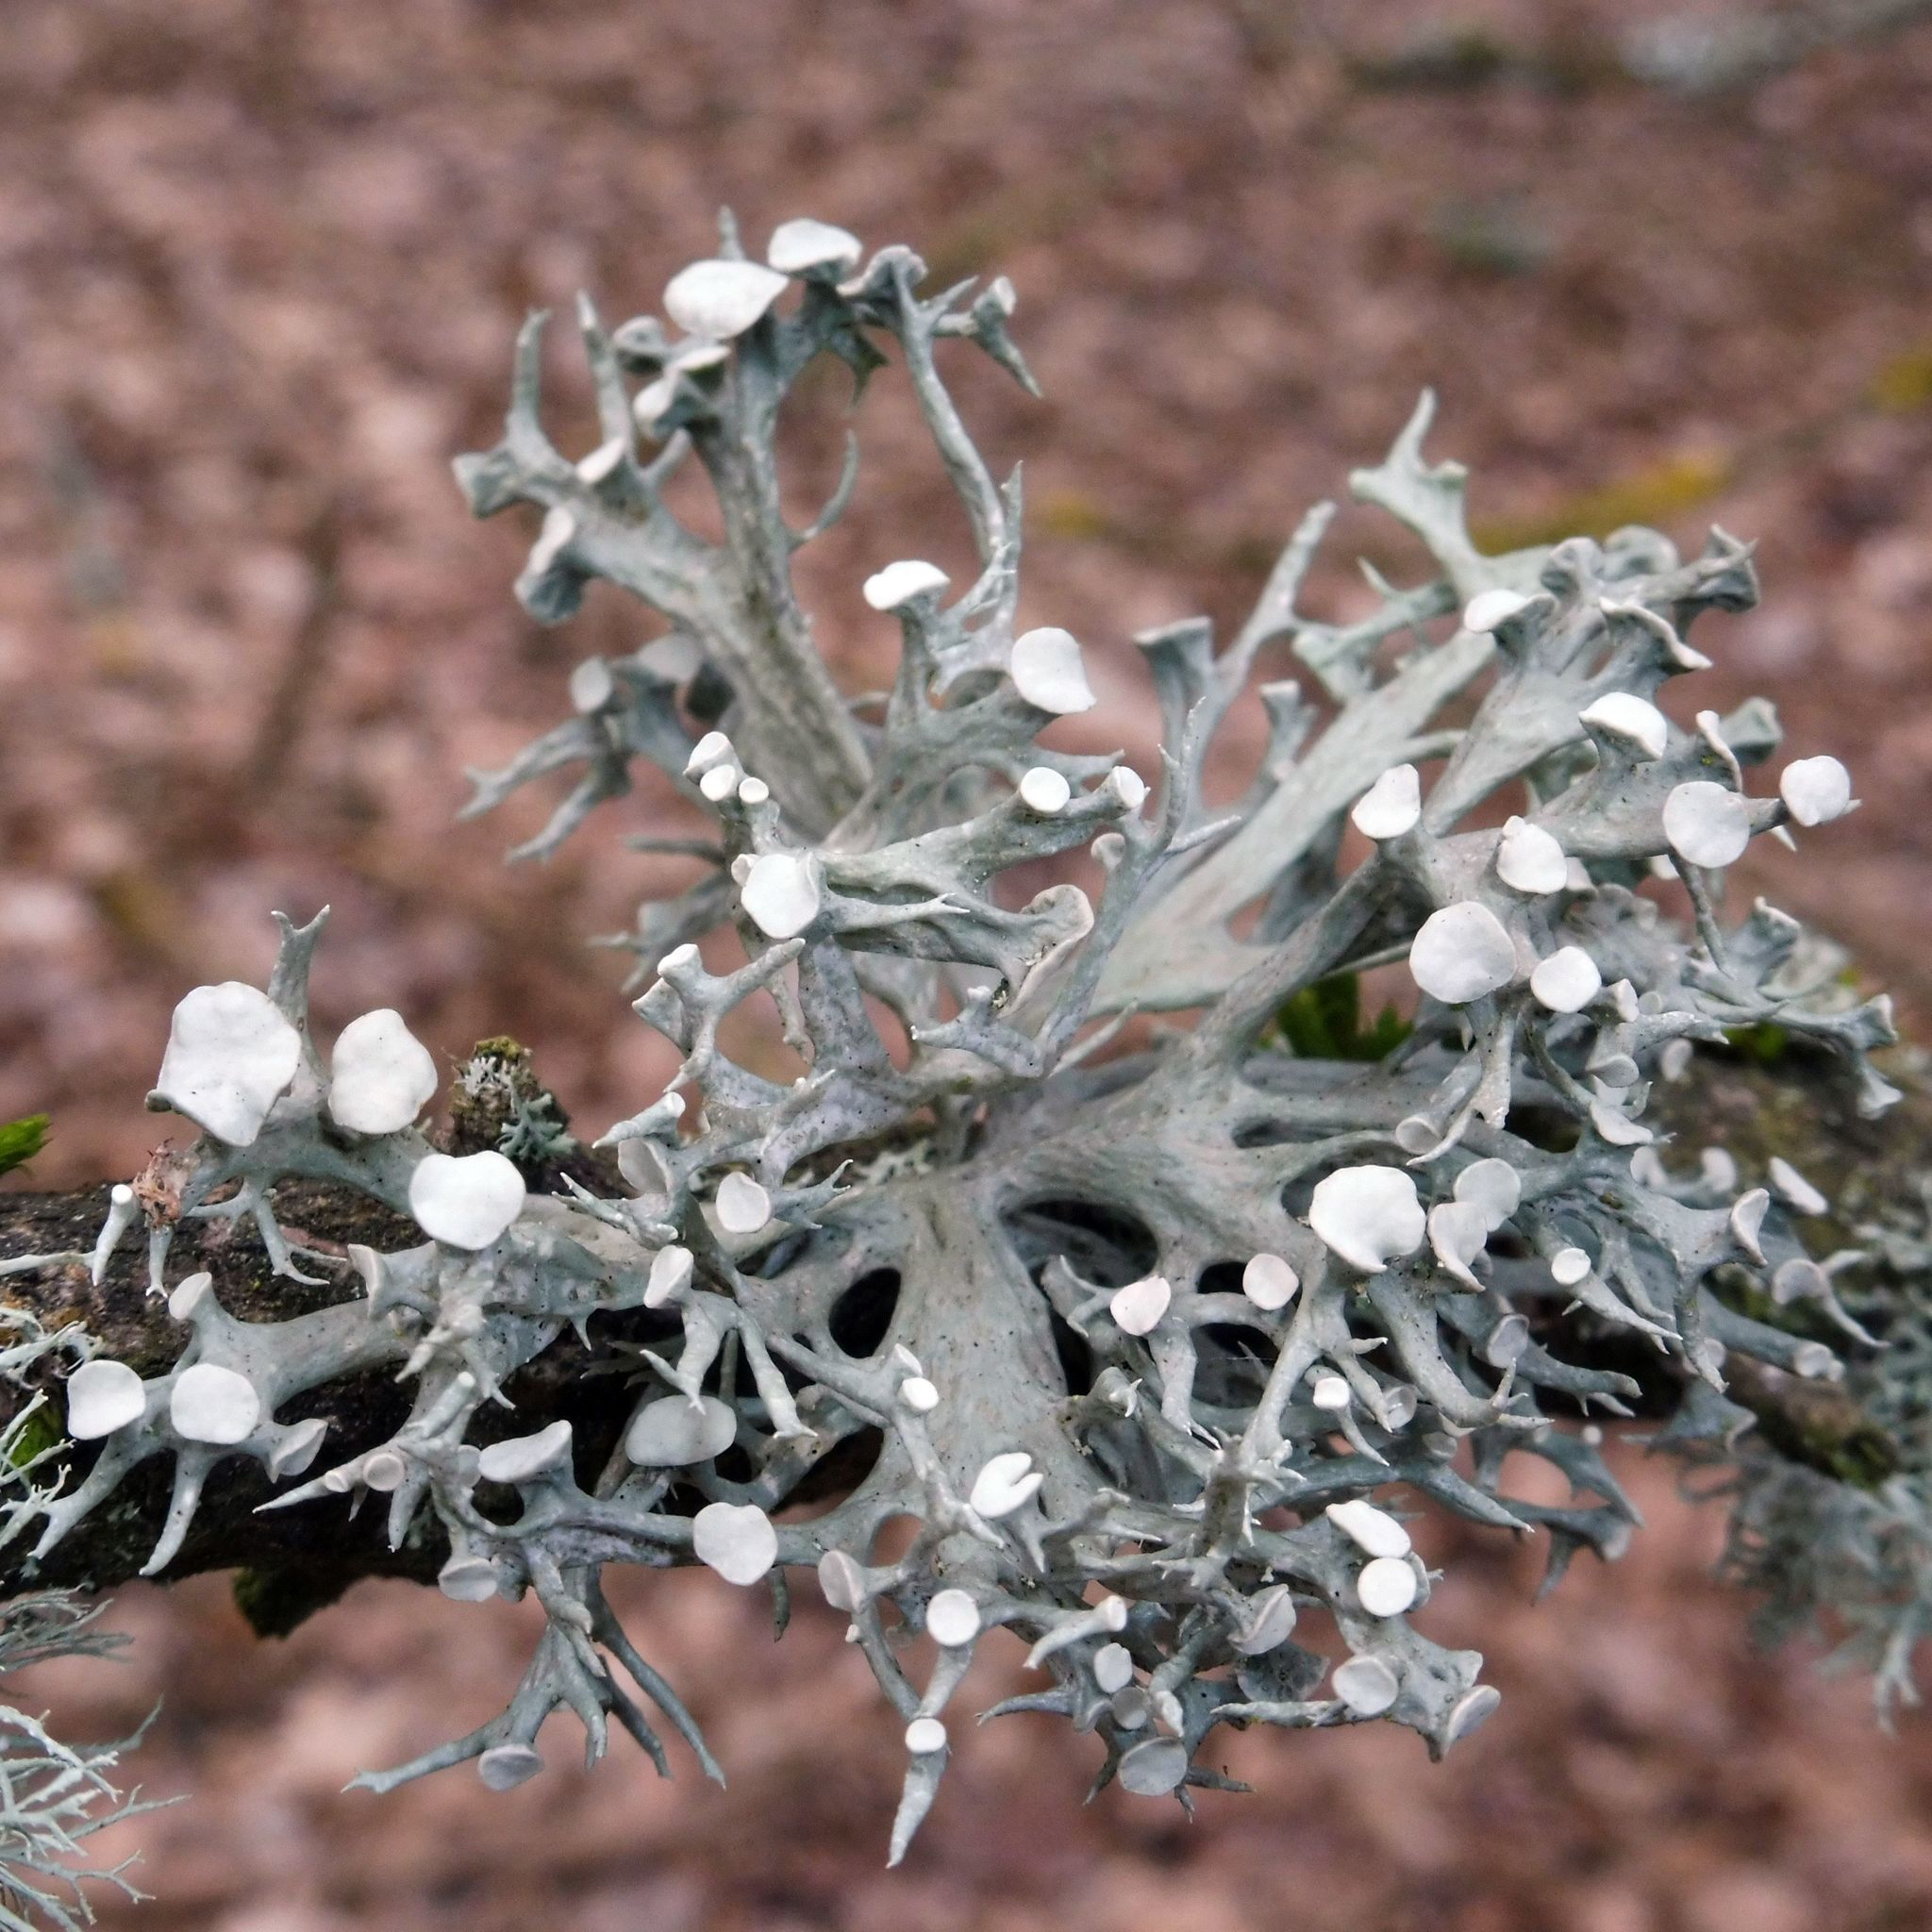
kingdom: Fungi
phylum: Ascomycota
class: Lecanoromycetes
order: Lecanorales
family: Ramalinaceae
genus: Ramalina
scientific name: Ramalina fastigiata
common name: Dotted ribbon lichen
